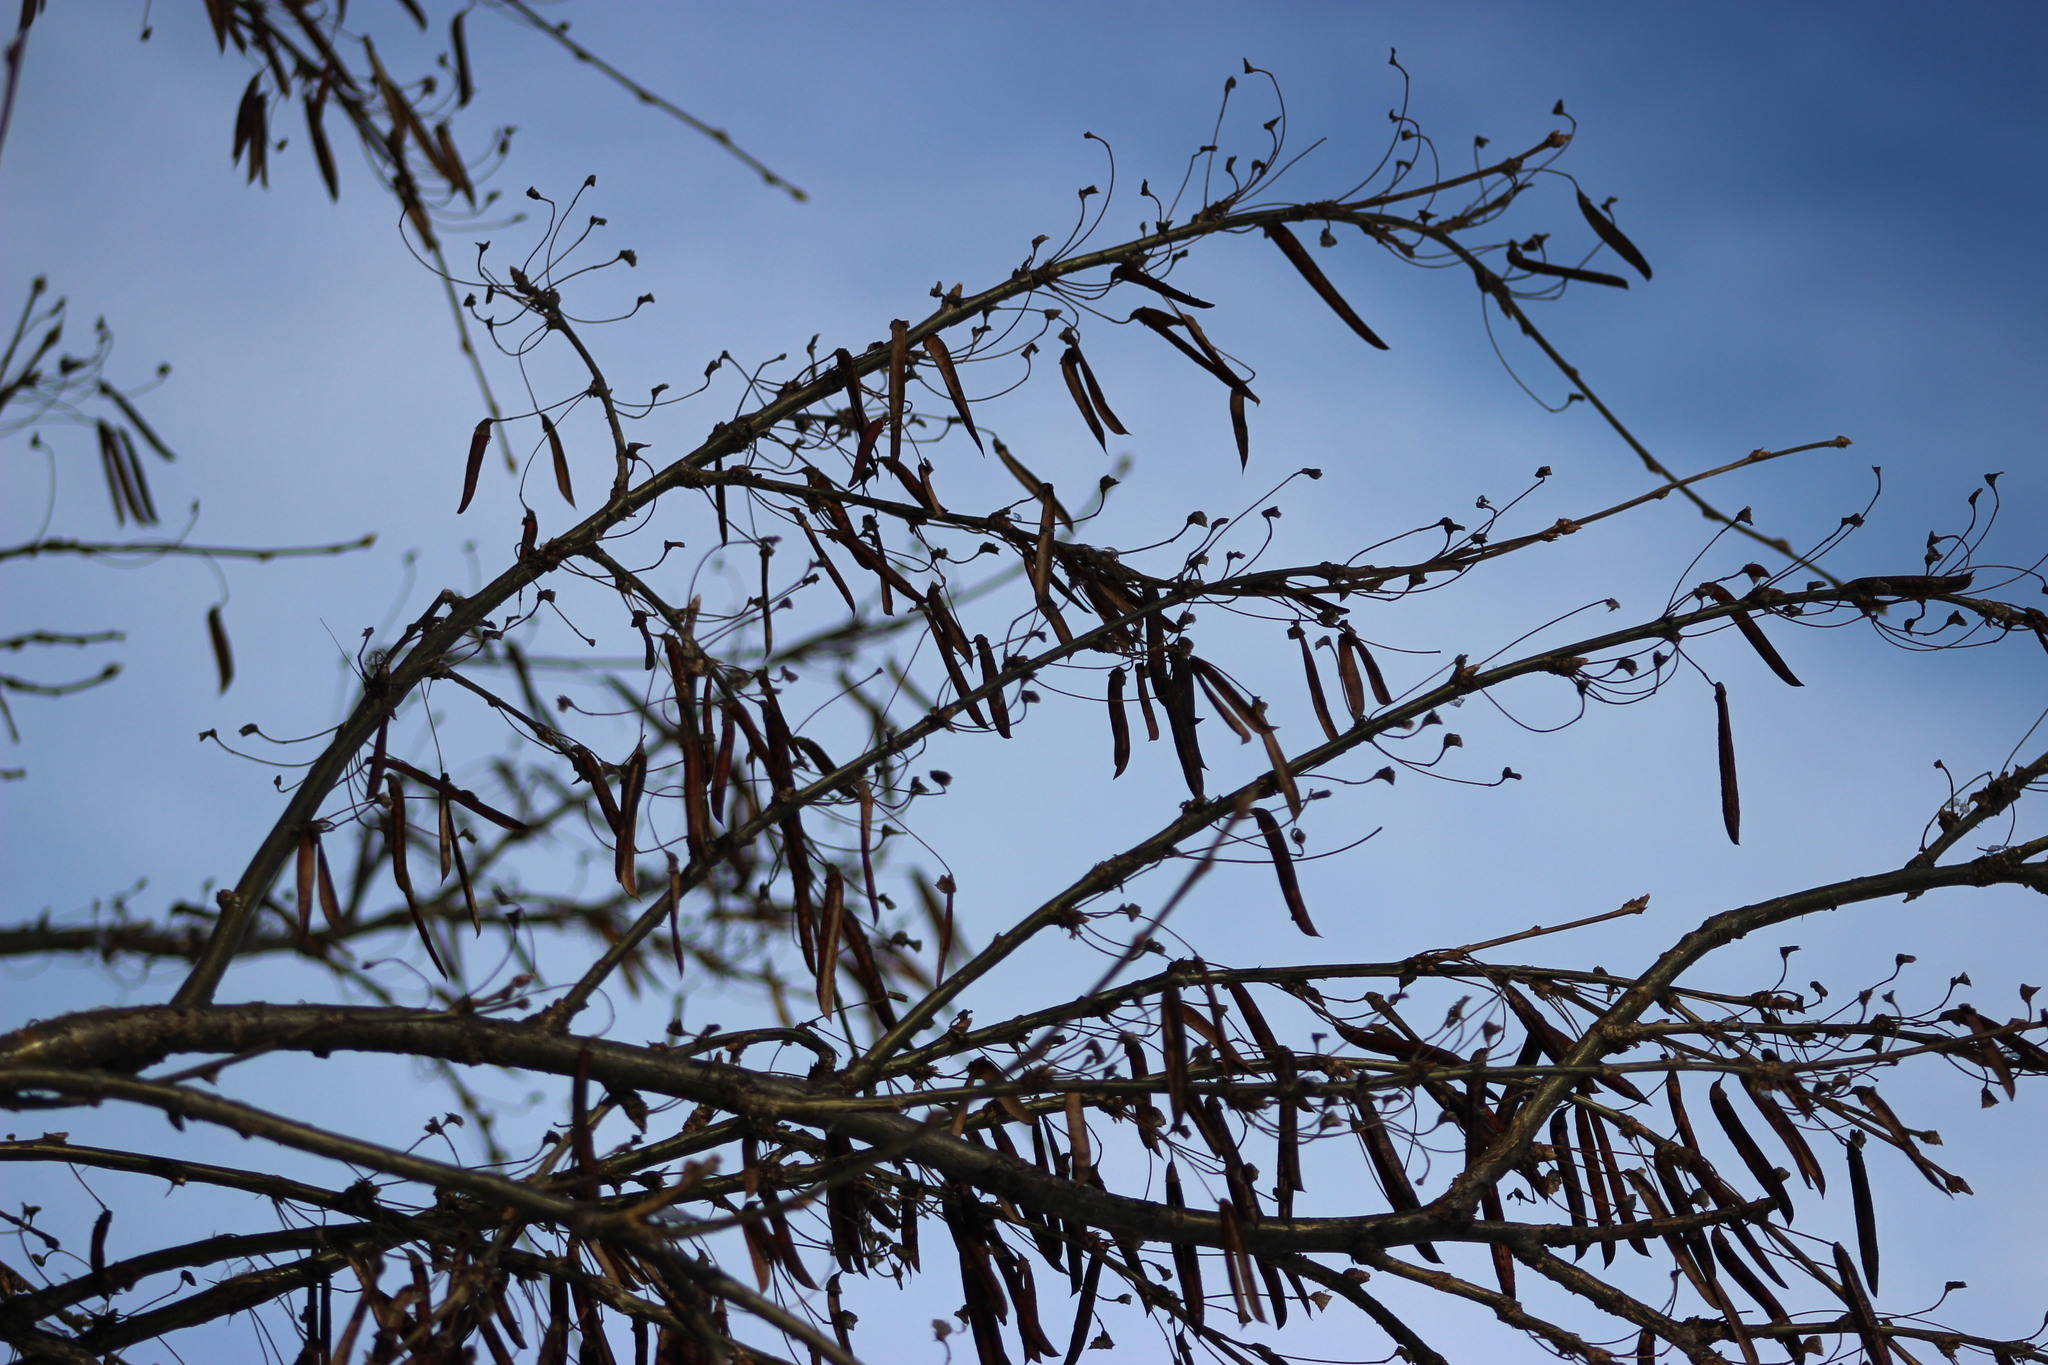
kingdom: Plantae
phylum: Tracheophyta
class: Magnoliopsida
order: Fabales
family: Fabaceae
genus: Caragana
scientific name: Caragana arborescens
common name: Siberian peashrub
